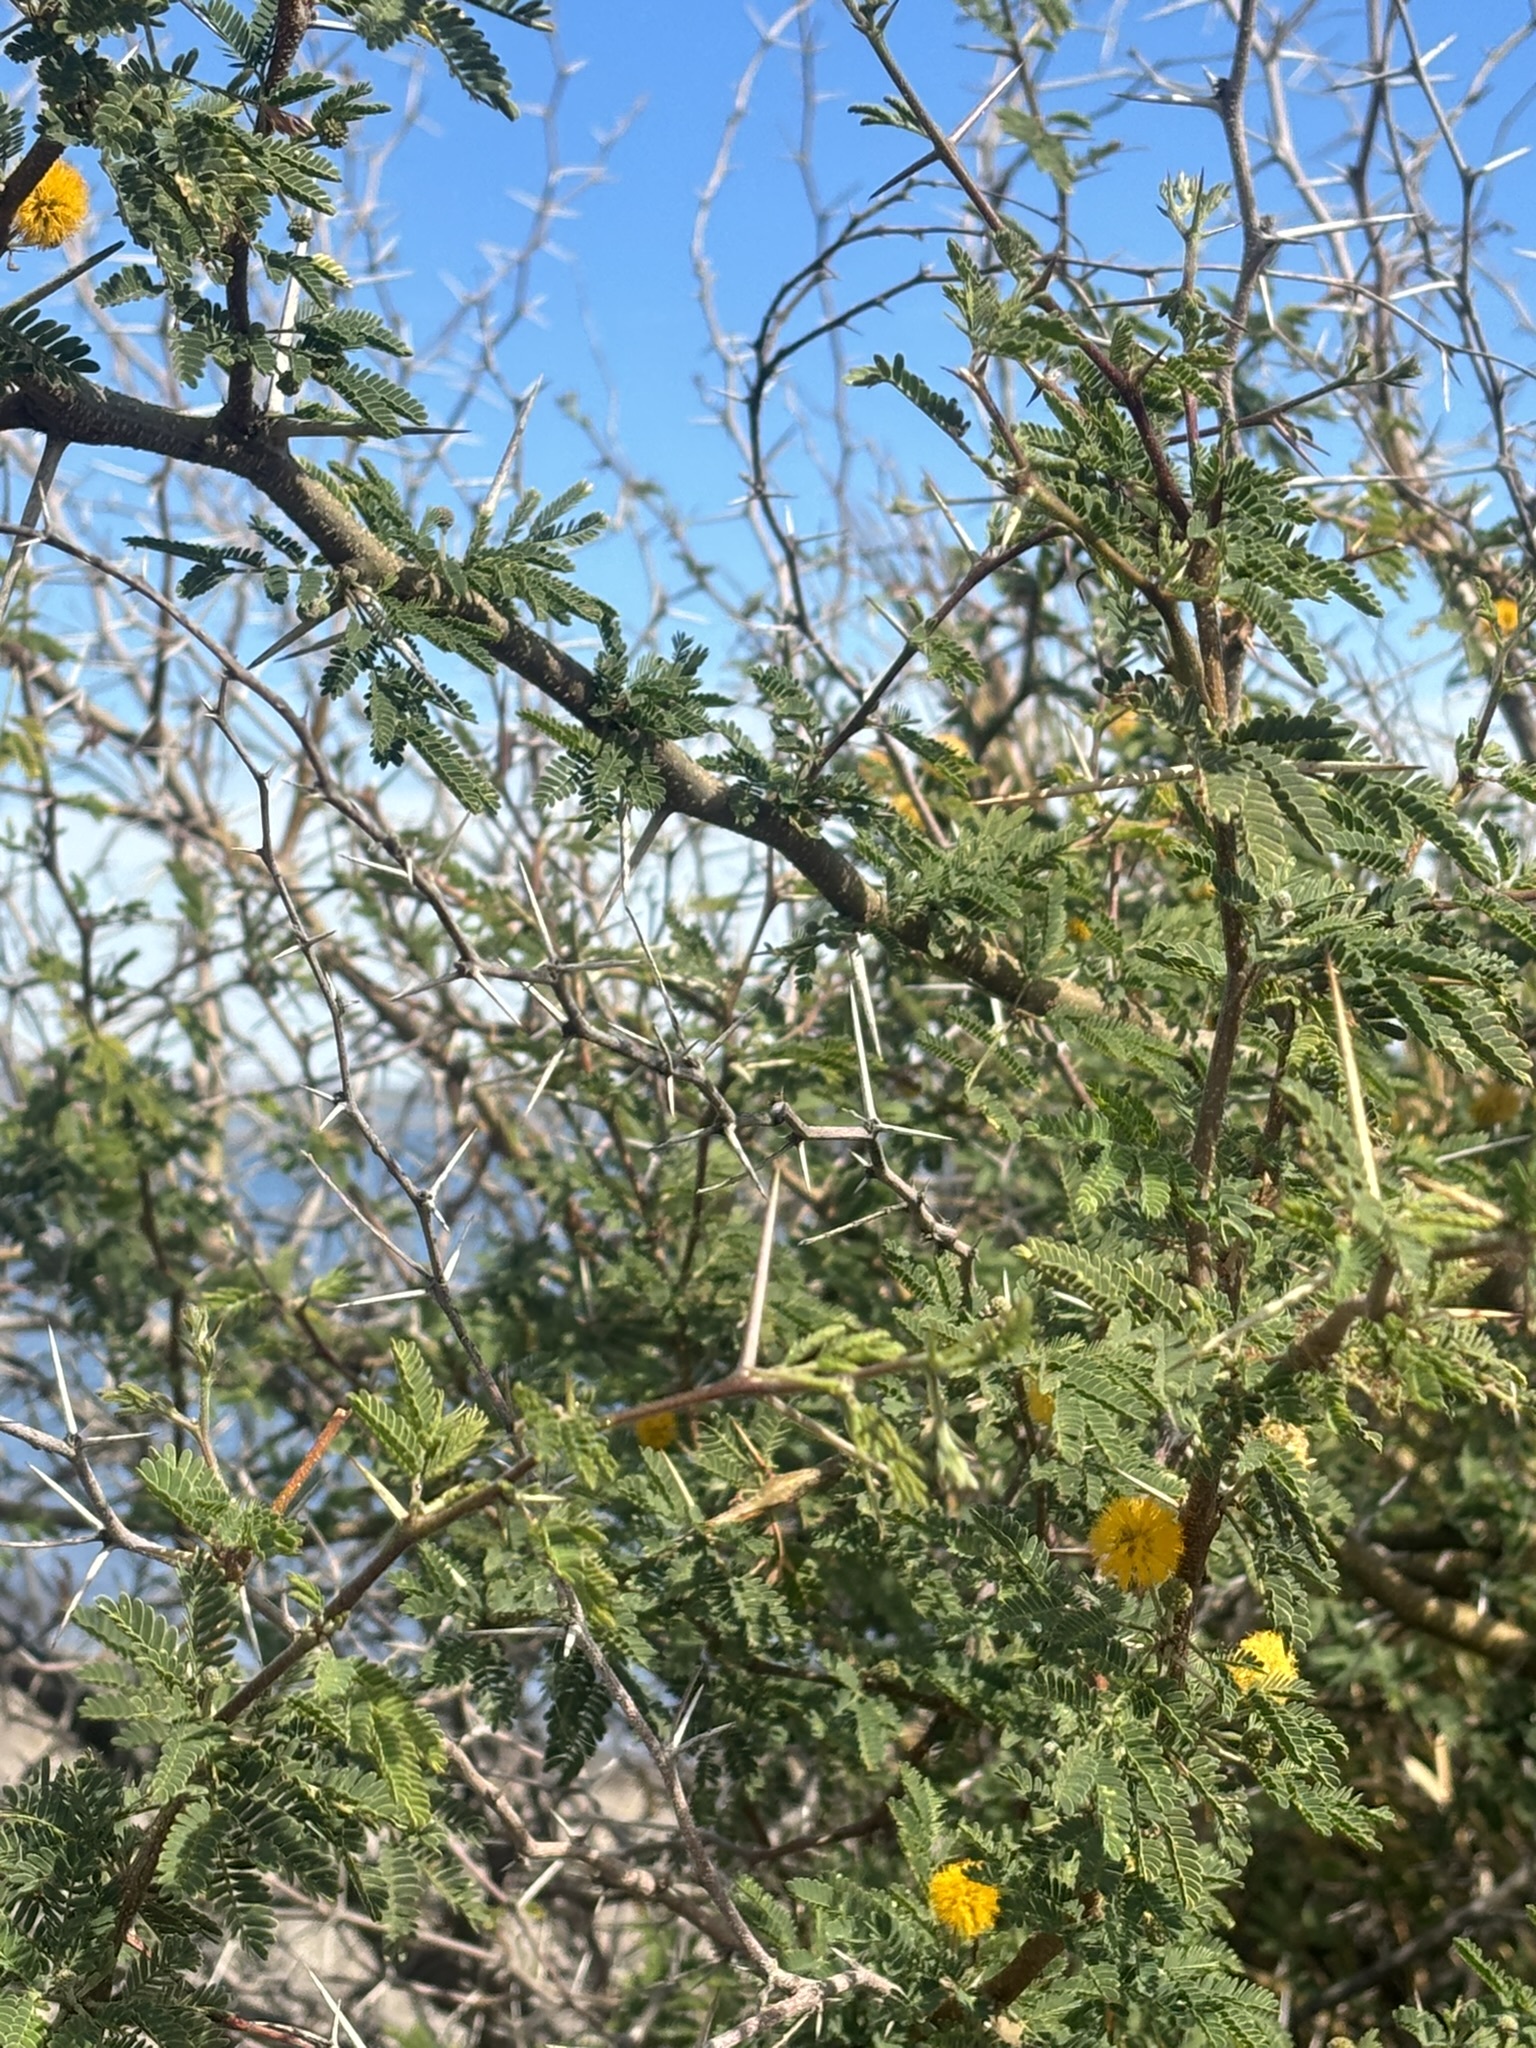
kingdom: Plantae
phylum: Tracheophyta
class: Magnoliopsida
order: Fabales
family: Fabaceae
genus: Vachellia
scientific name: Vachellia farnesiana
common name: Sweet acacia
